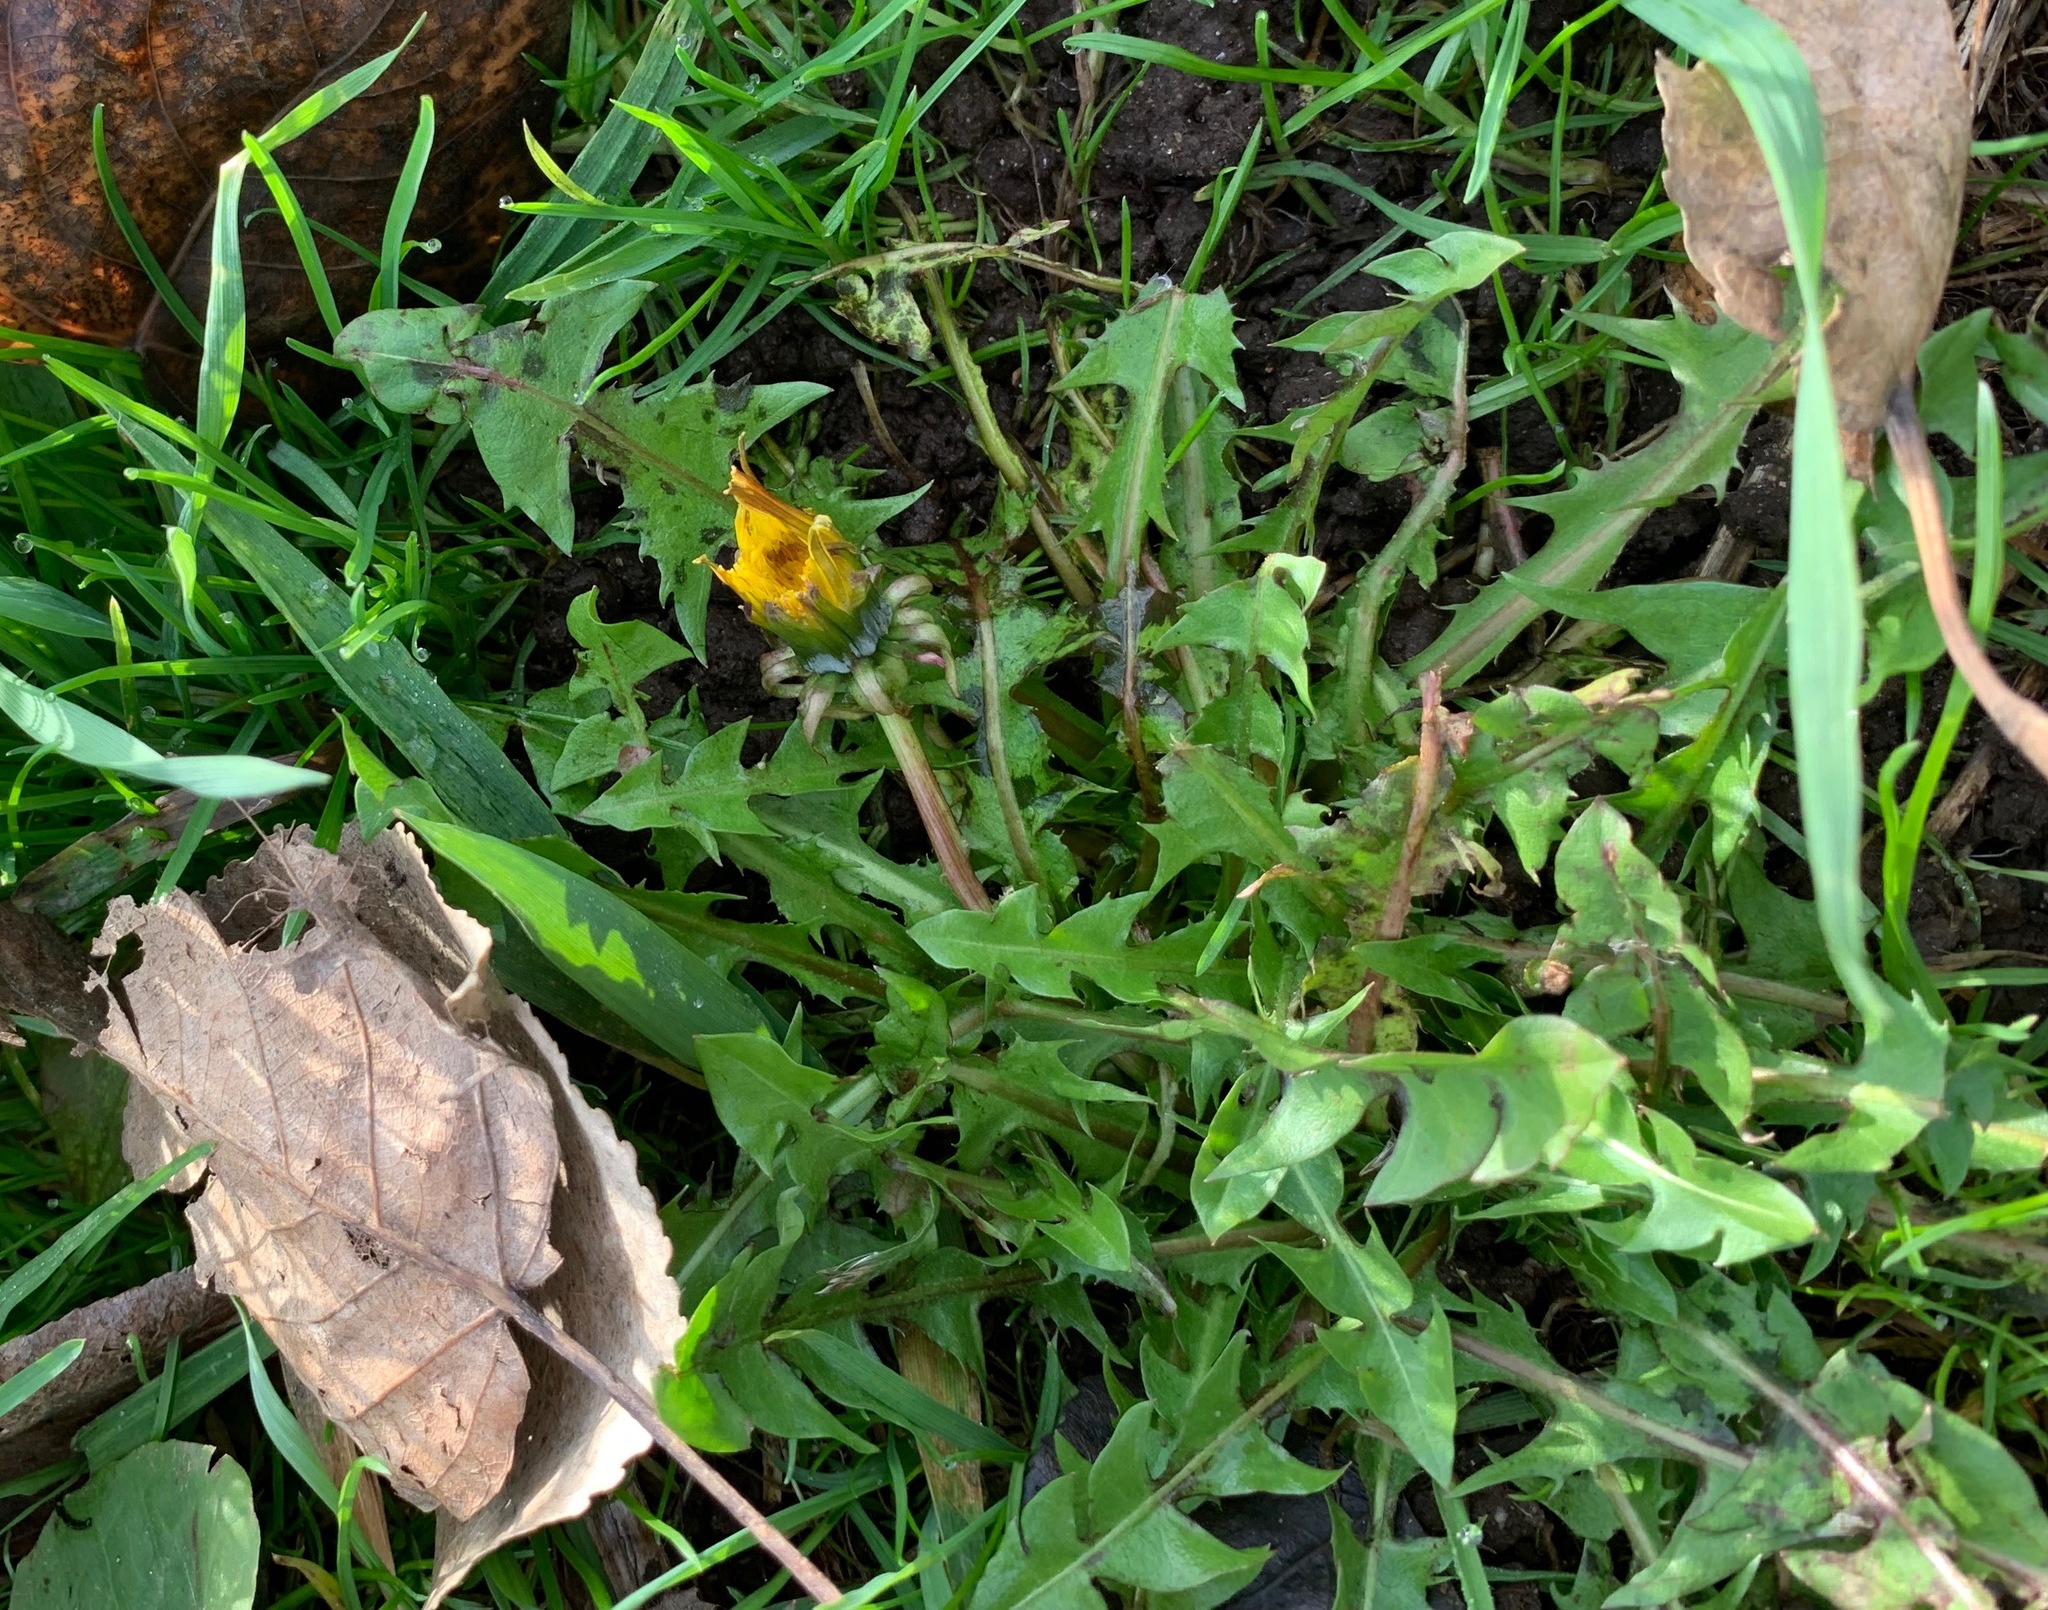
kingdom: Plantae
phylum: Tracheophyta
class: Magnoliopsida
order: Asterales
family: Asteraceae
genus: Taraxacum
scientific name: Taraxacum officinale
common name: Common dandelion
